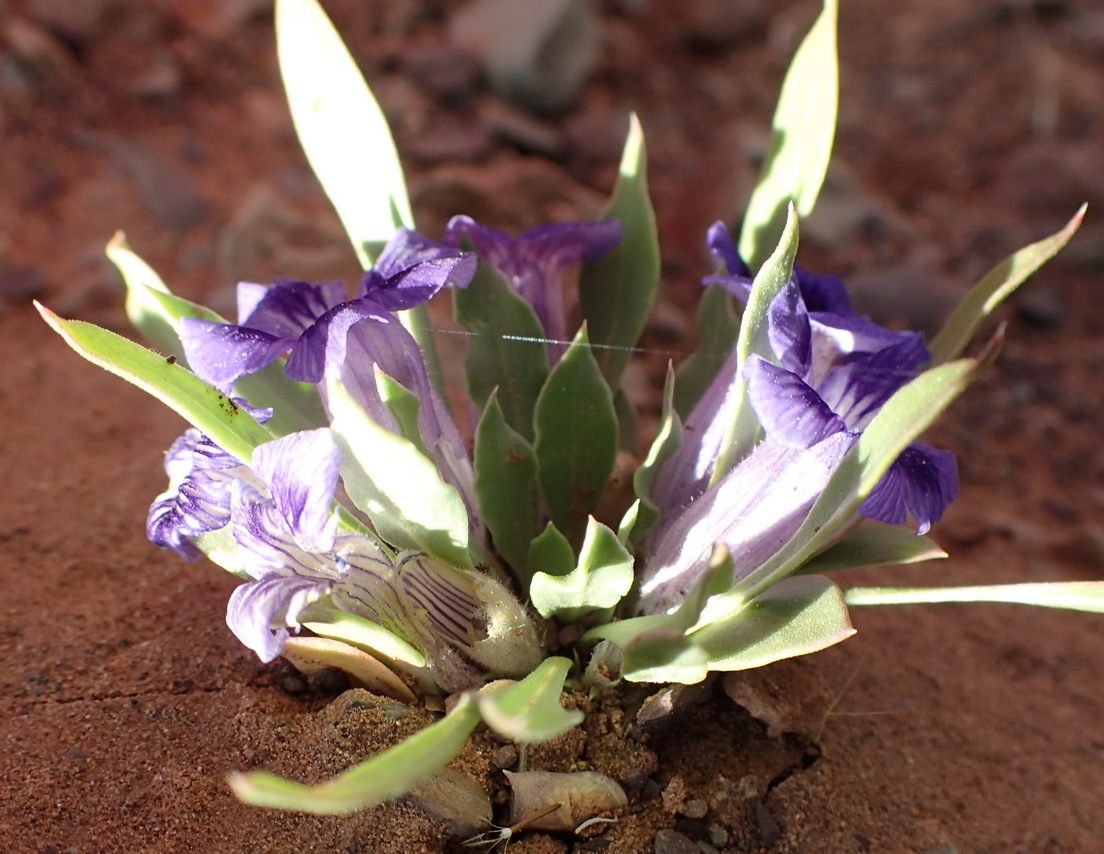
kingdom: Plantae
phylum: Tracheophyta
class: Magnoliopsida
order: Lamiales
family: Scrophulariaceae
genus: Aptosimum
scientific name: Aptosimum indivisum
